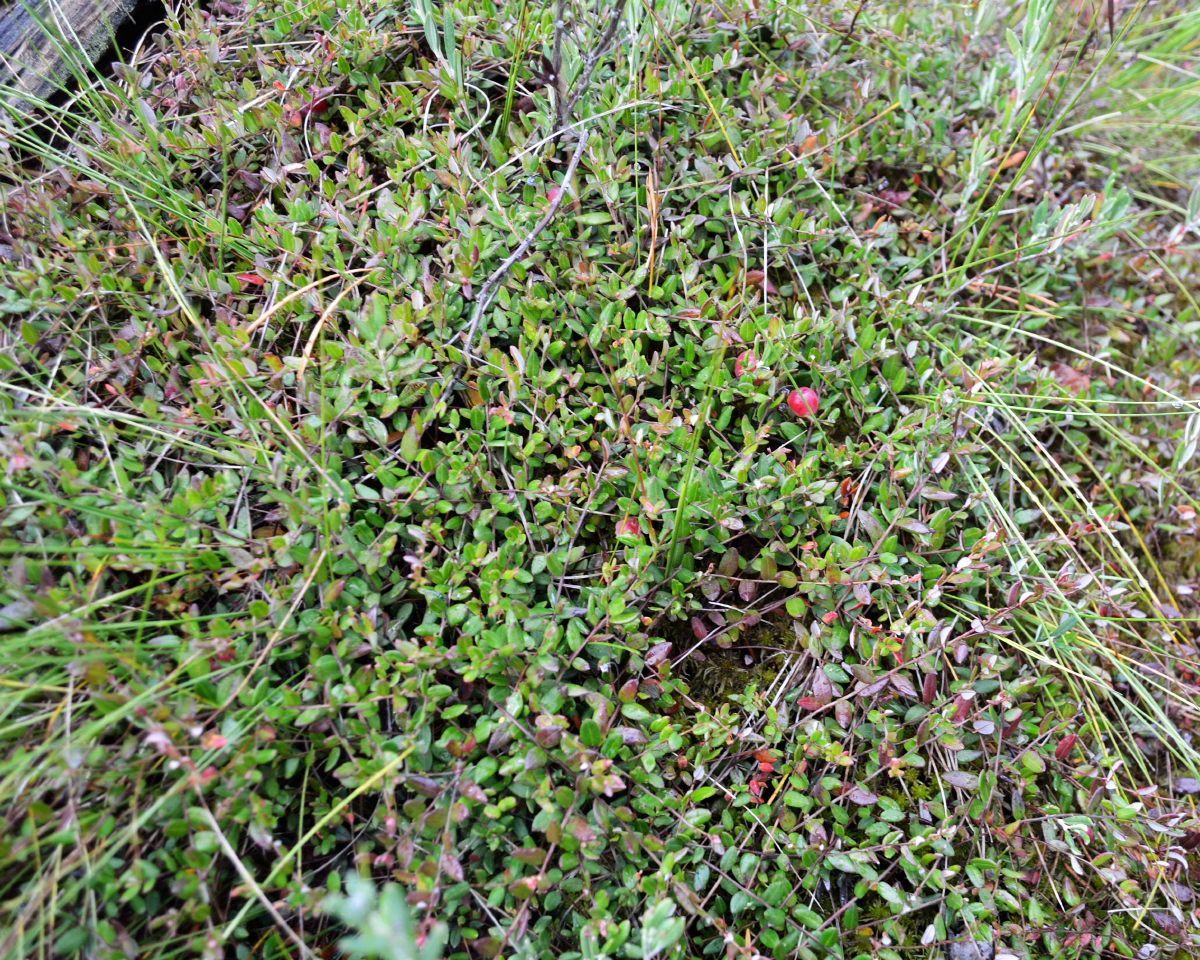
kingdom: Plantae
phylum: Tracheophyta
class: Magnoliopsida
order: Ericales
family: Ericaceae
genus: Vaccinium
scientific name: Vaccinium oxycoccos
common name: Cranberry
